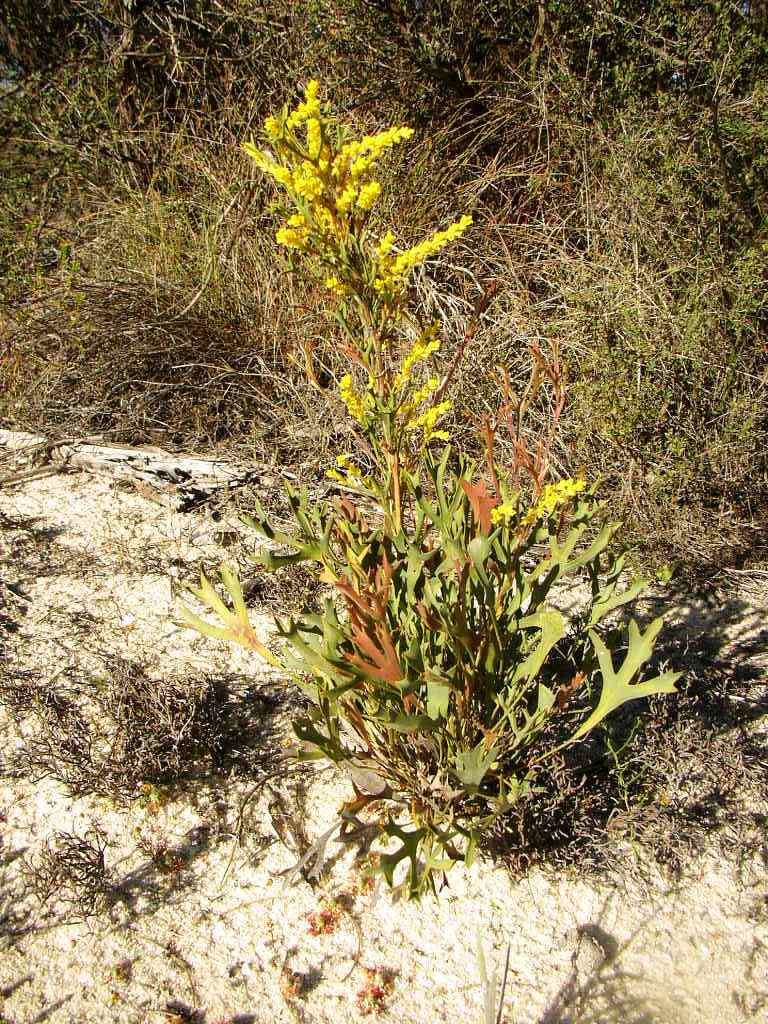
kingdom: Plantae
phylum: Tracheophyta
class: Magnoliopsida
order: Proteales
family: Proteaceae
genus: Synaphea
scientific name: Synaphea spinulosa
